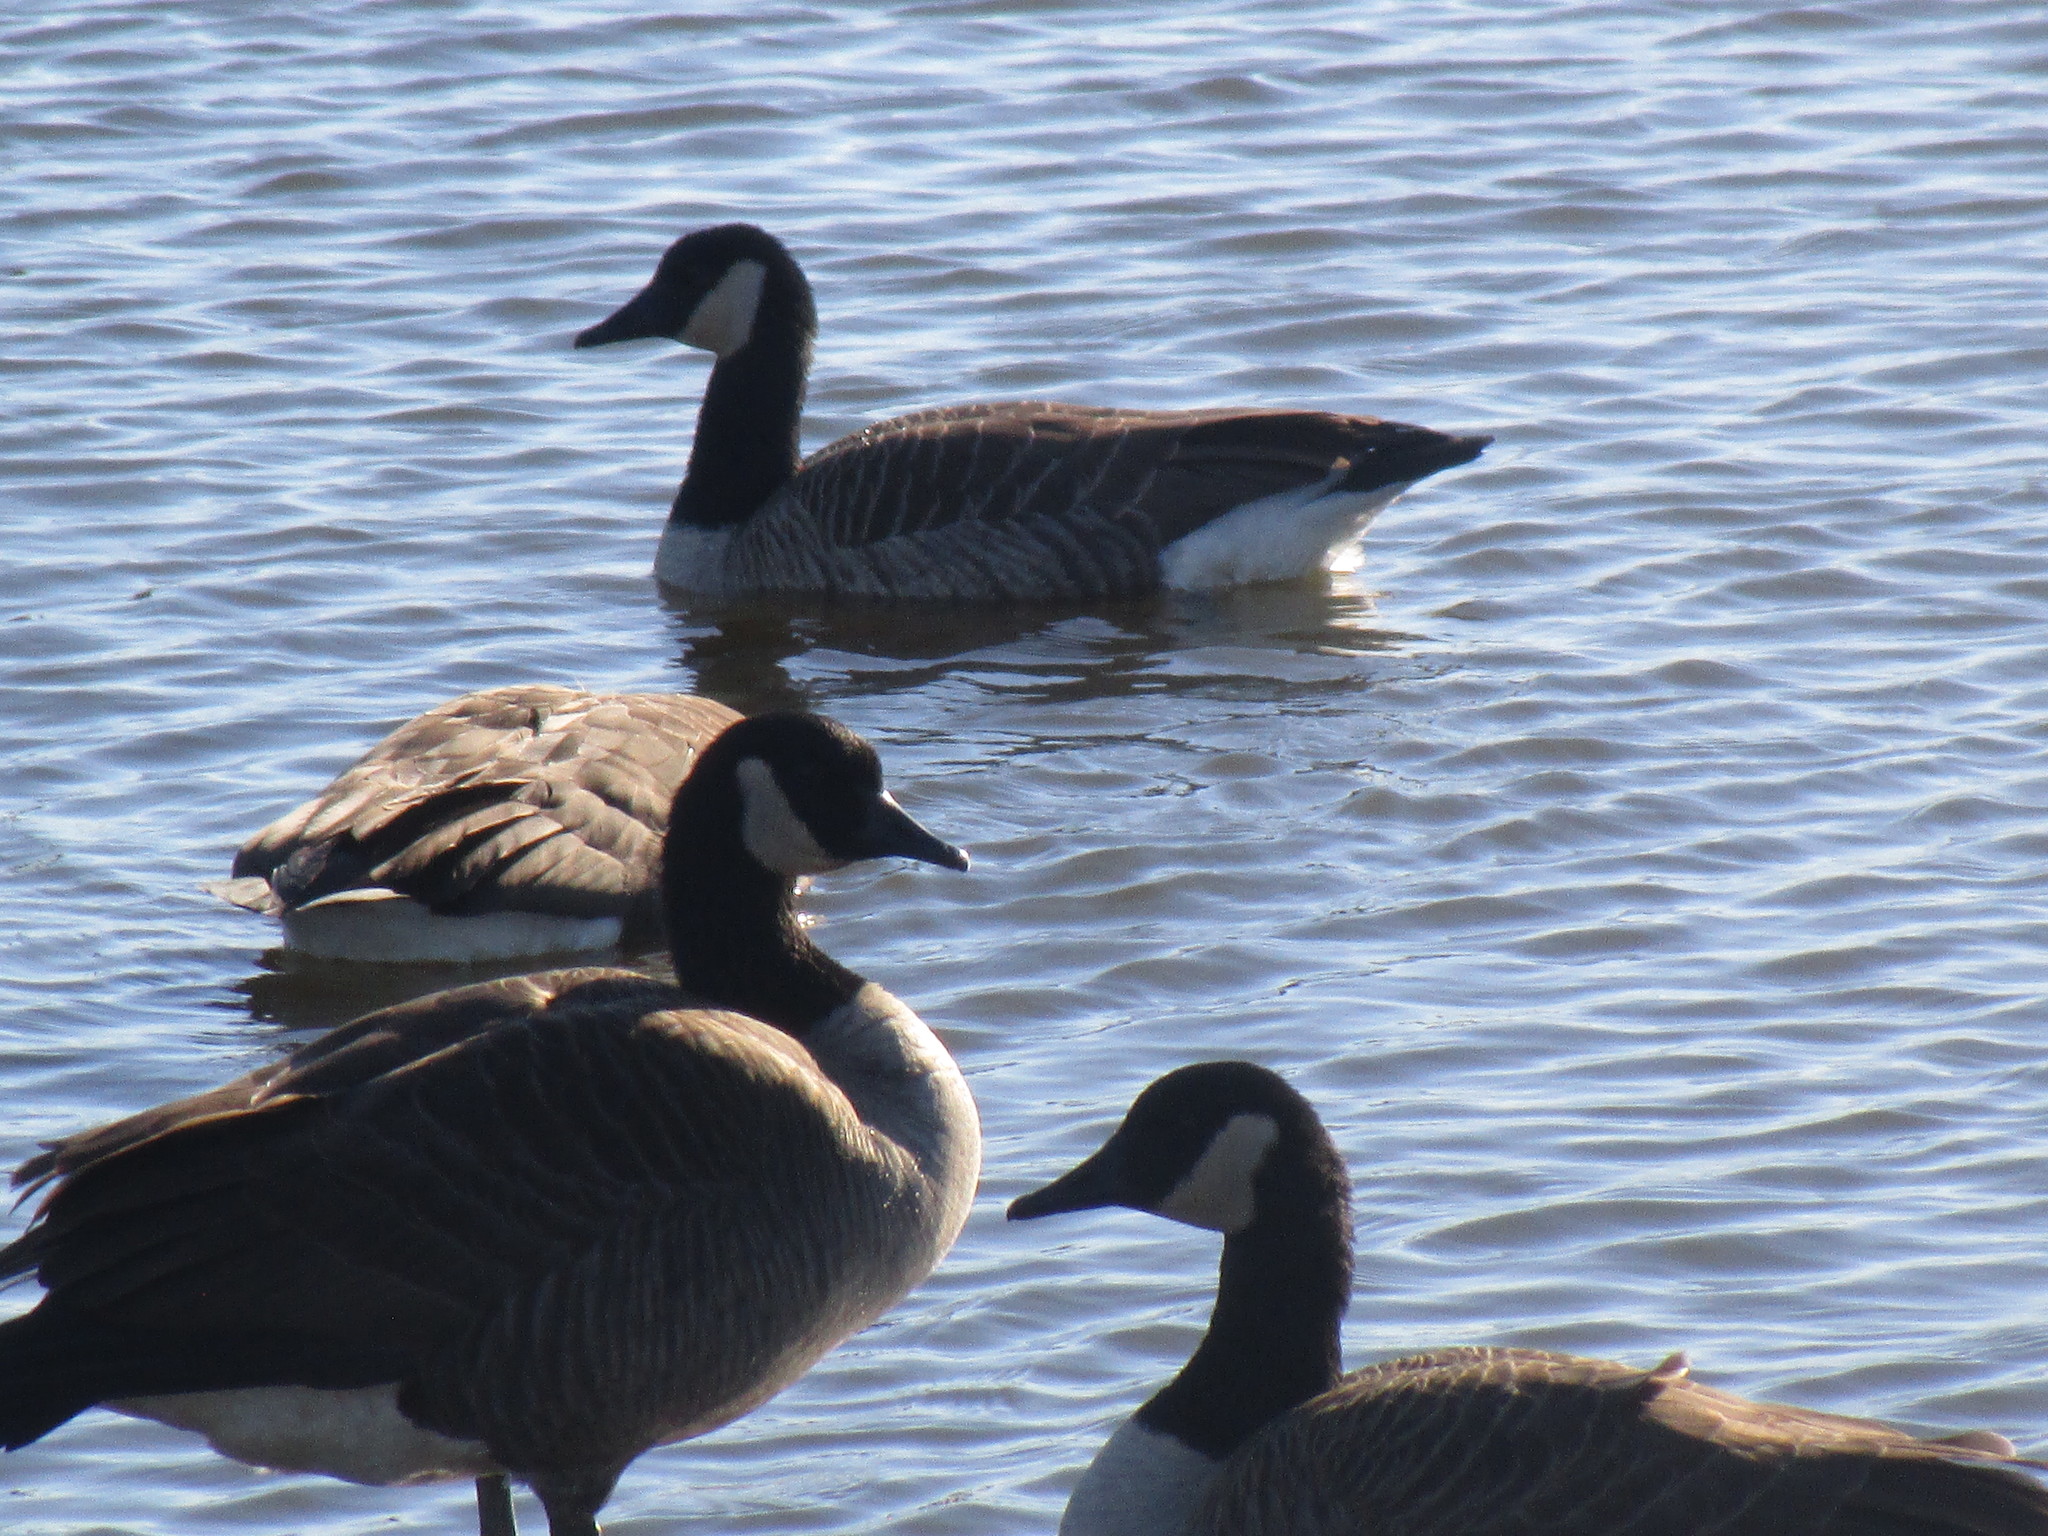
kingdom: Animalia
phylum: Chordata
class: Aves
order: Anseriformes
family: Anatidae
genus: Branta
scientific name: Branta canadensis
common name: Canada goose
